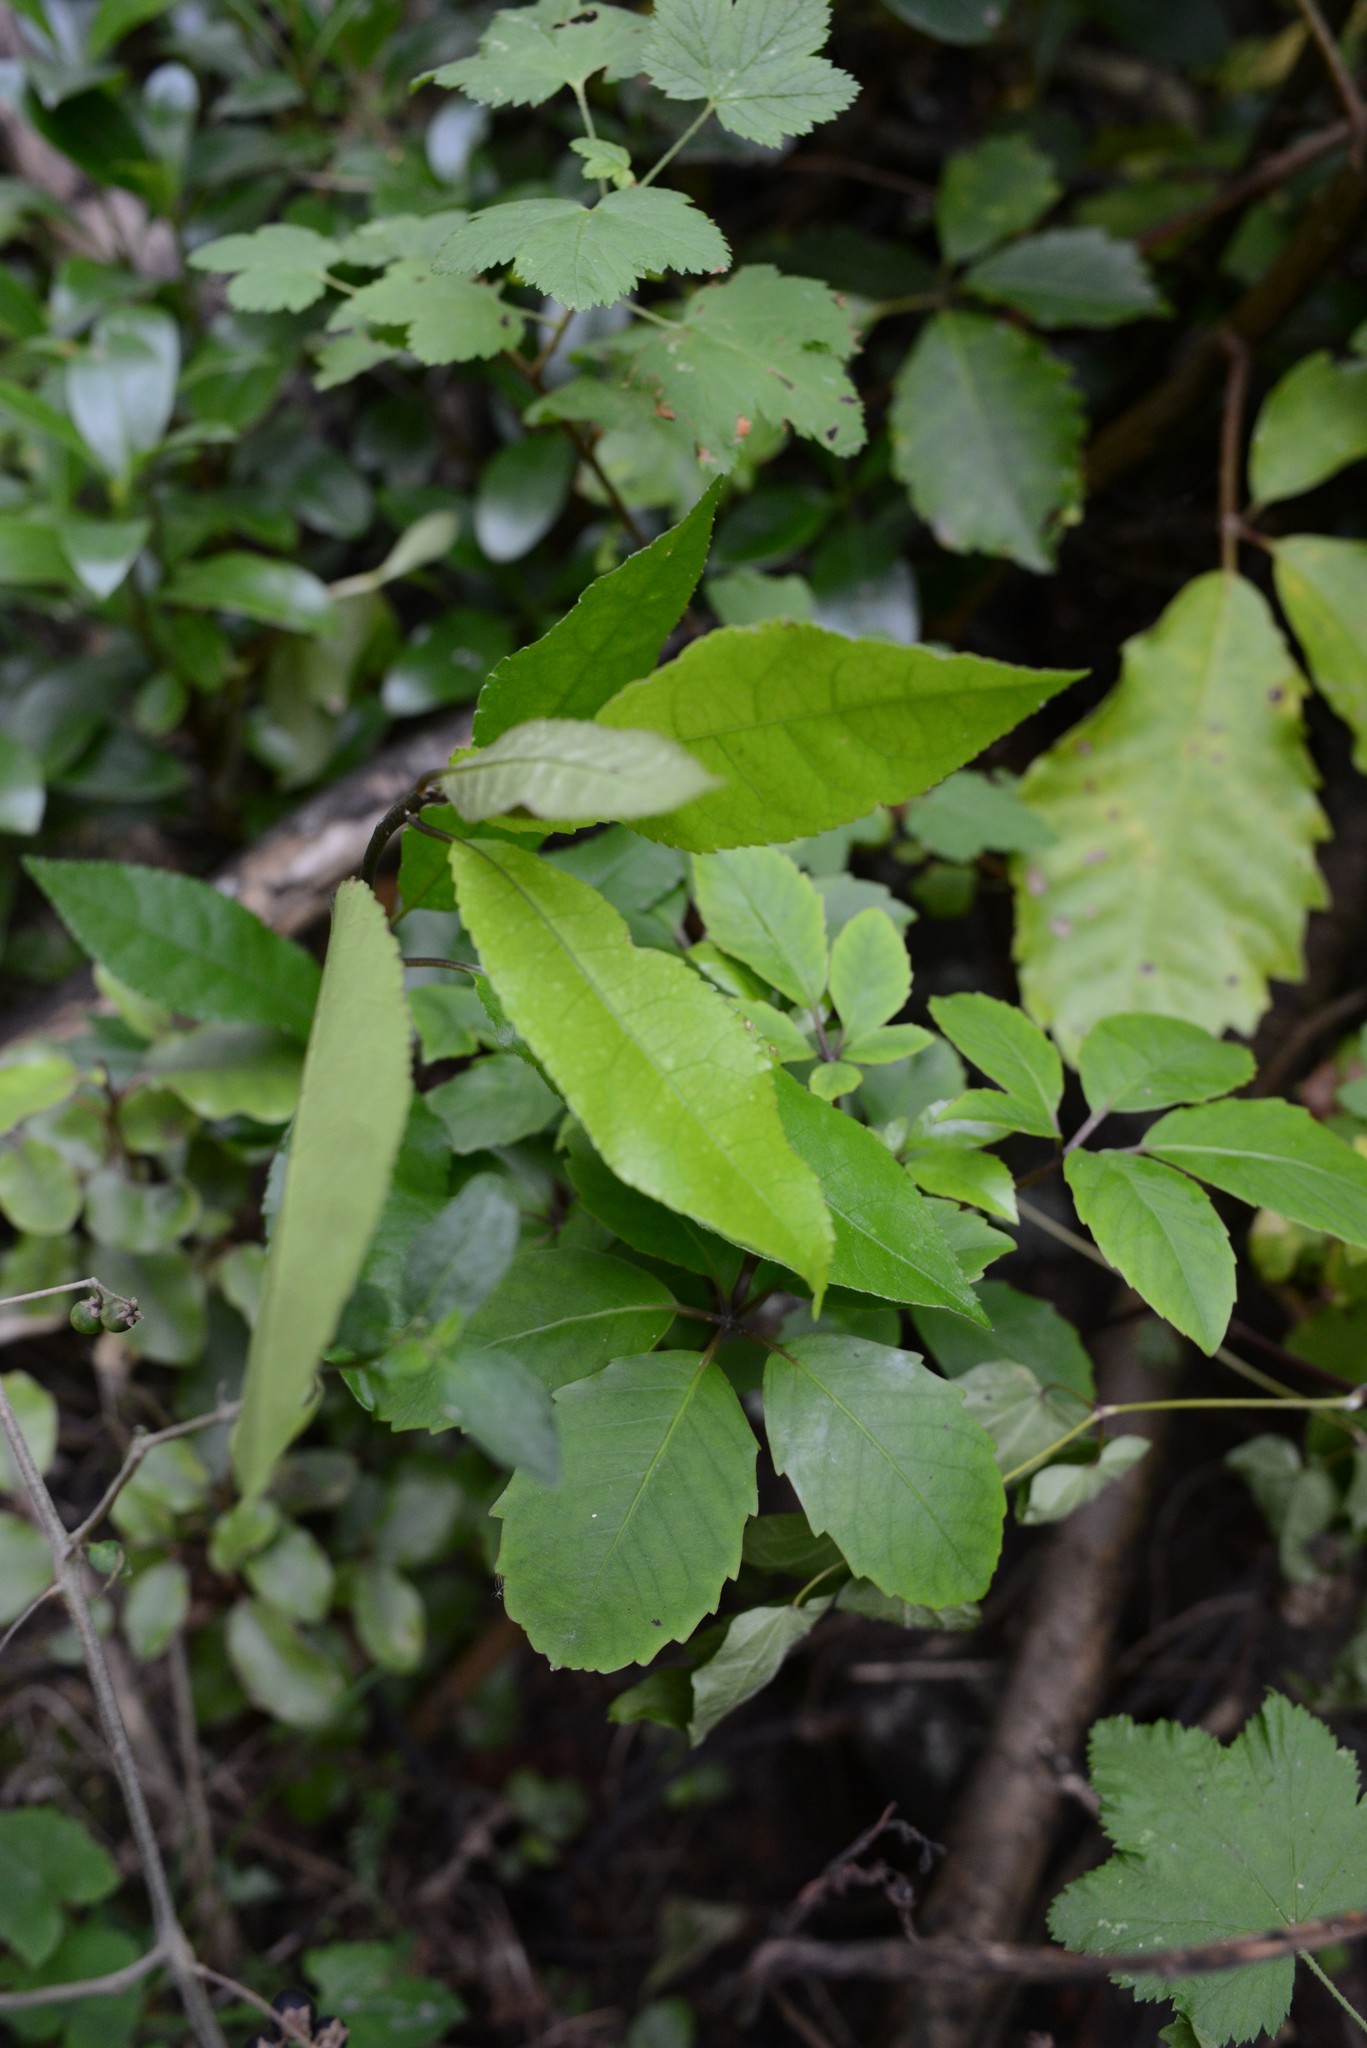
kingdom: Plantae
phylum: Tracheophyta
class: Magnoliopsida
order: Malpighiales
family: Violaceae
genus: Melicytus
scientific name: Melicytus ramiflorus
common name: Mahoe
